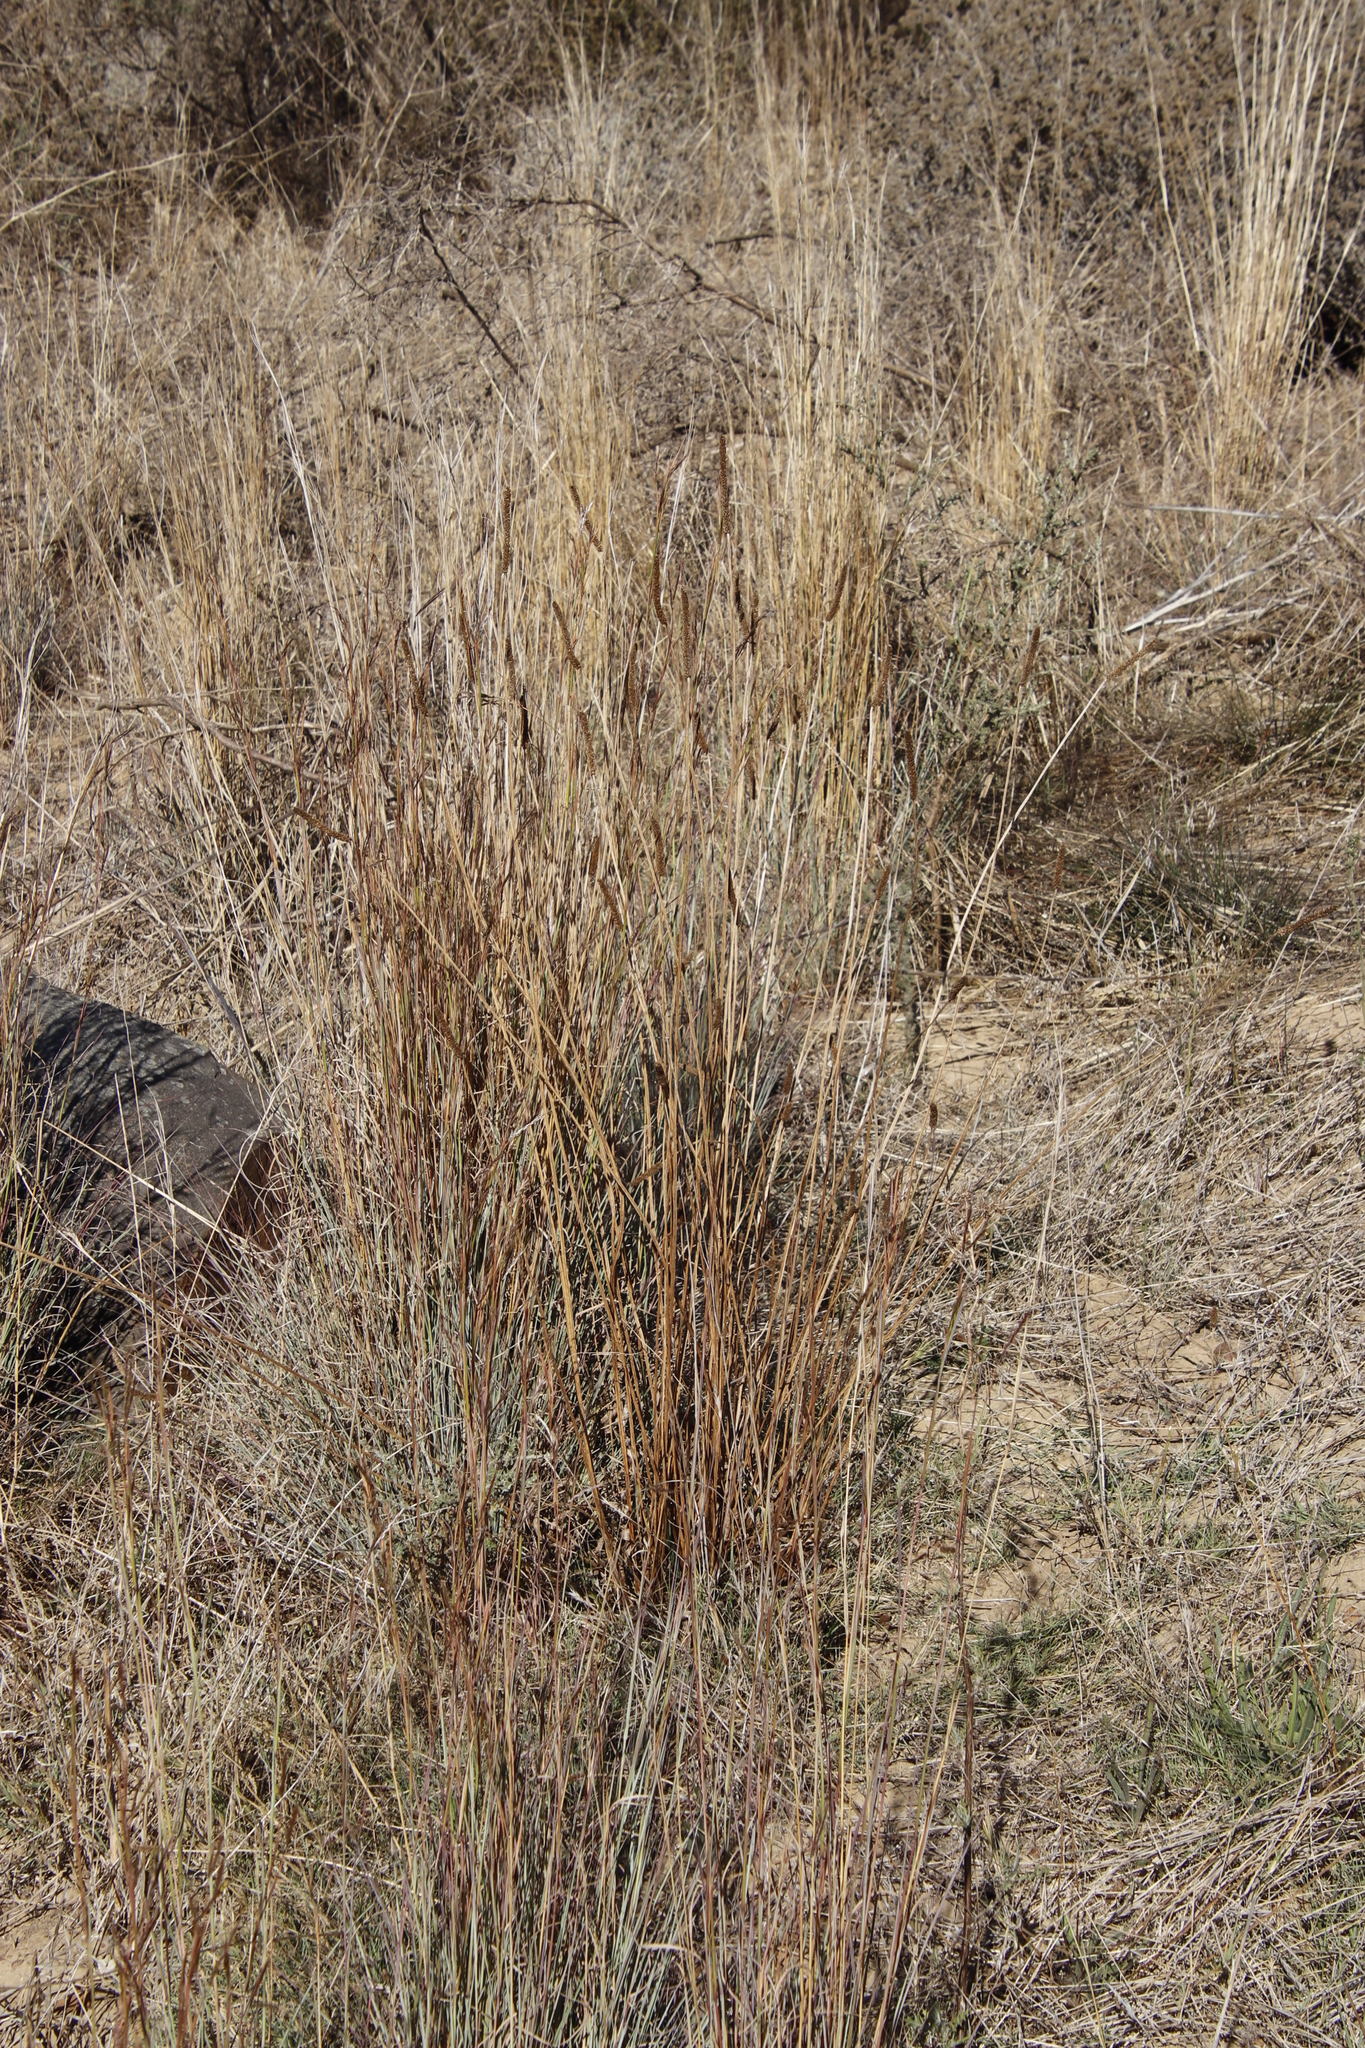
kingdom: Plantae
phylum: Tracheophyta
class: Magnoliopsida
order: Lamiales
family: Plantaginaceae
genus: Plantago
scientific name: Plantago lanceolata
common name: Ribwort plantain
